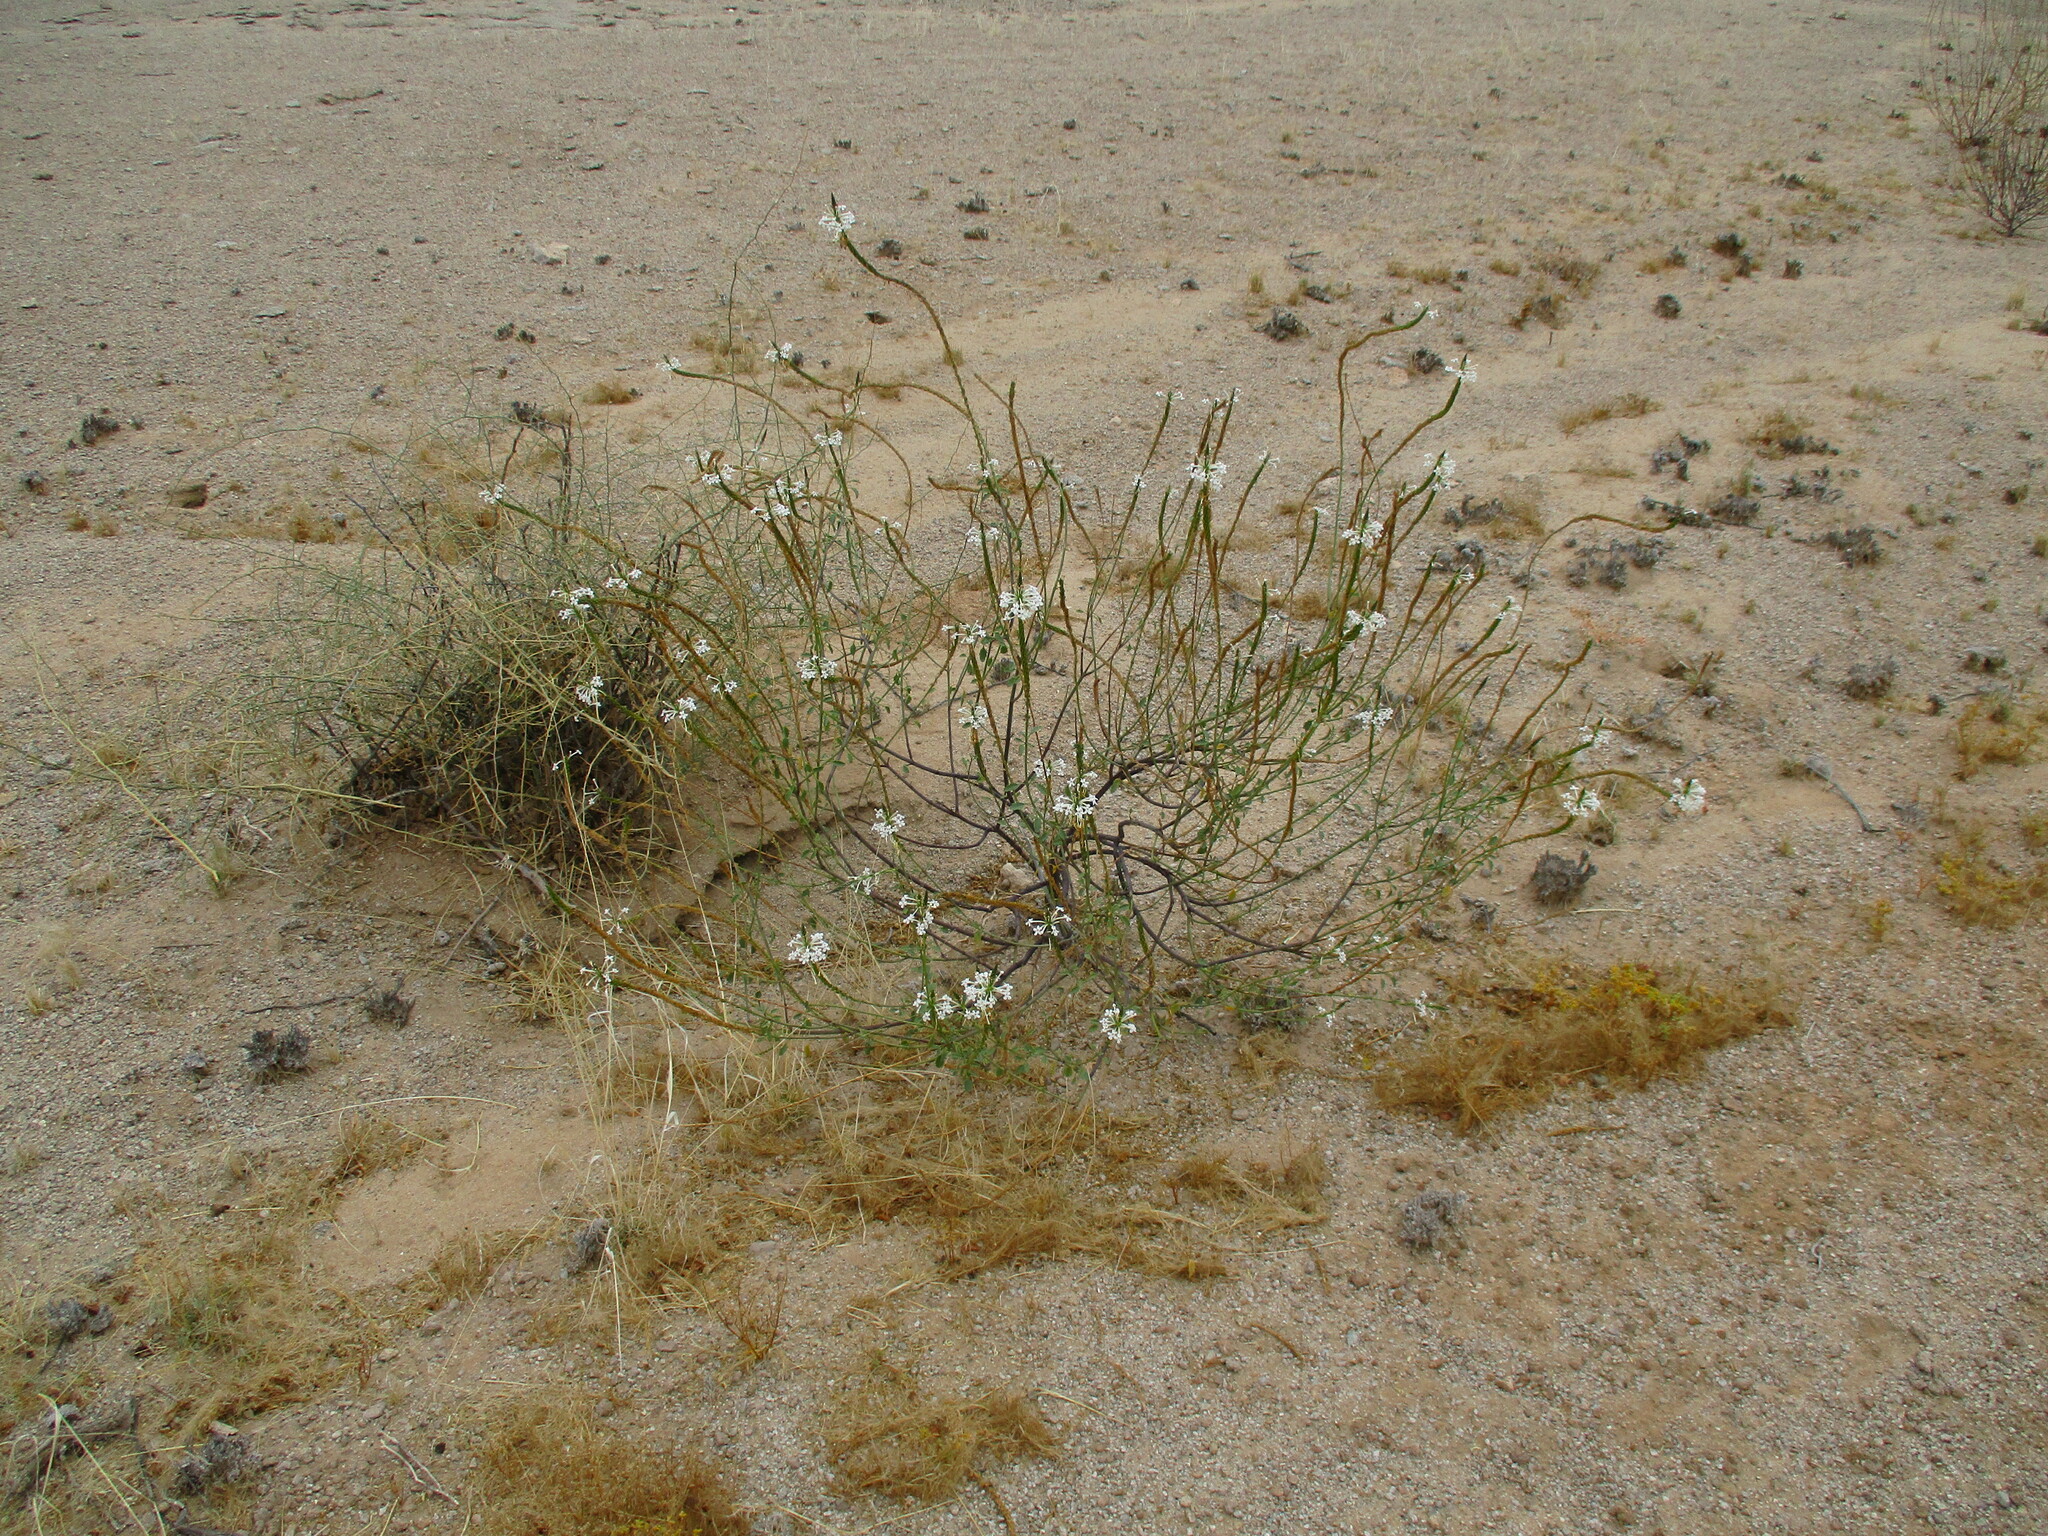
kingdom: Plantae
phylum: Tracheophyta
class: Magnoliopsida
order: Lamiales
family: Verbenaceae
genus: Chascanum
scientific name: Chascanum garipense
